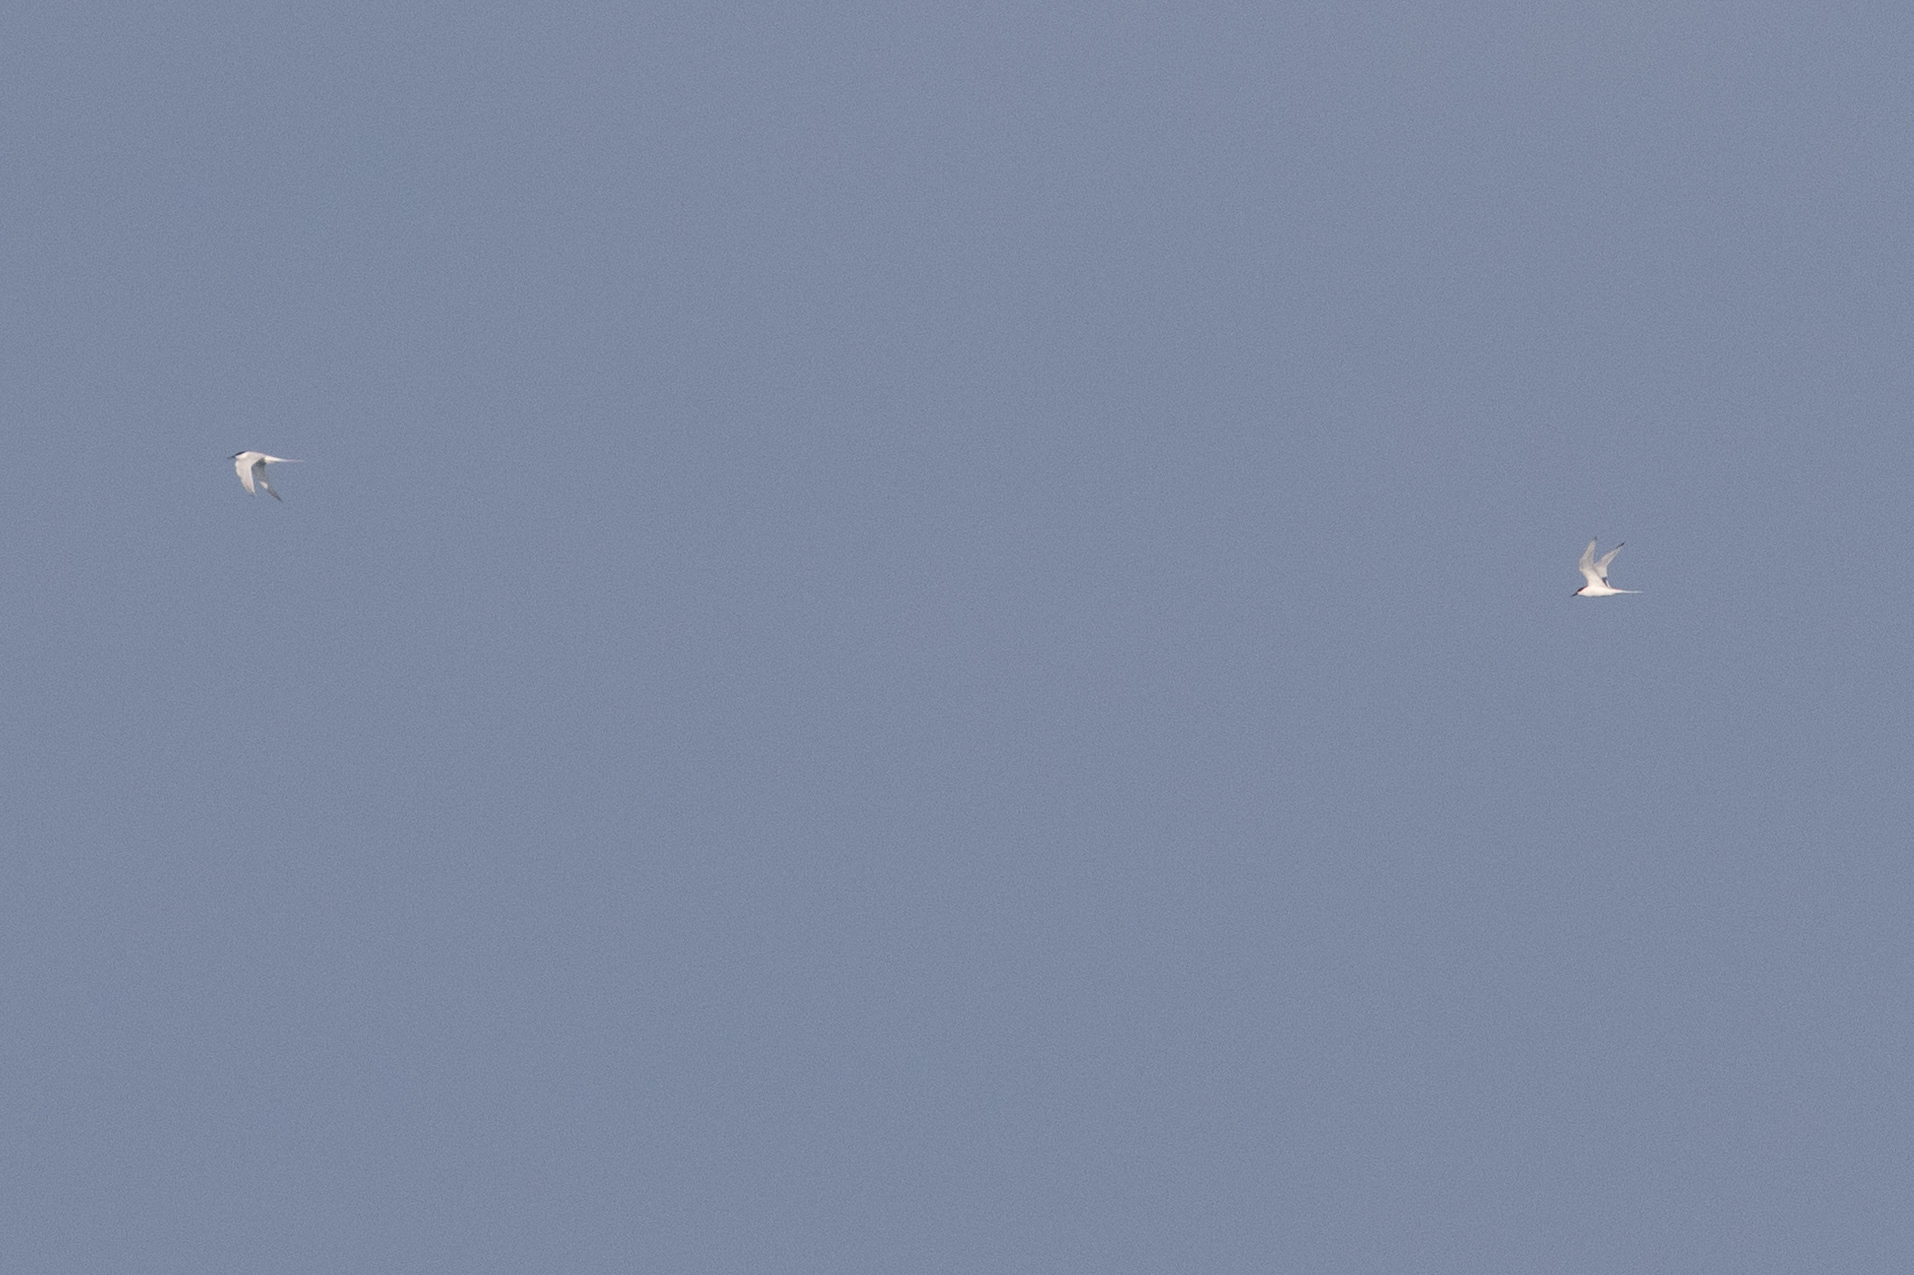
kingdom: Animalia
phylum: Chordata
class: Aves
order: Charadriiformes
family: Laridae
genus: Sterna
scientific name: Sterna dougallii
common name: Roseate tern
